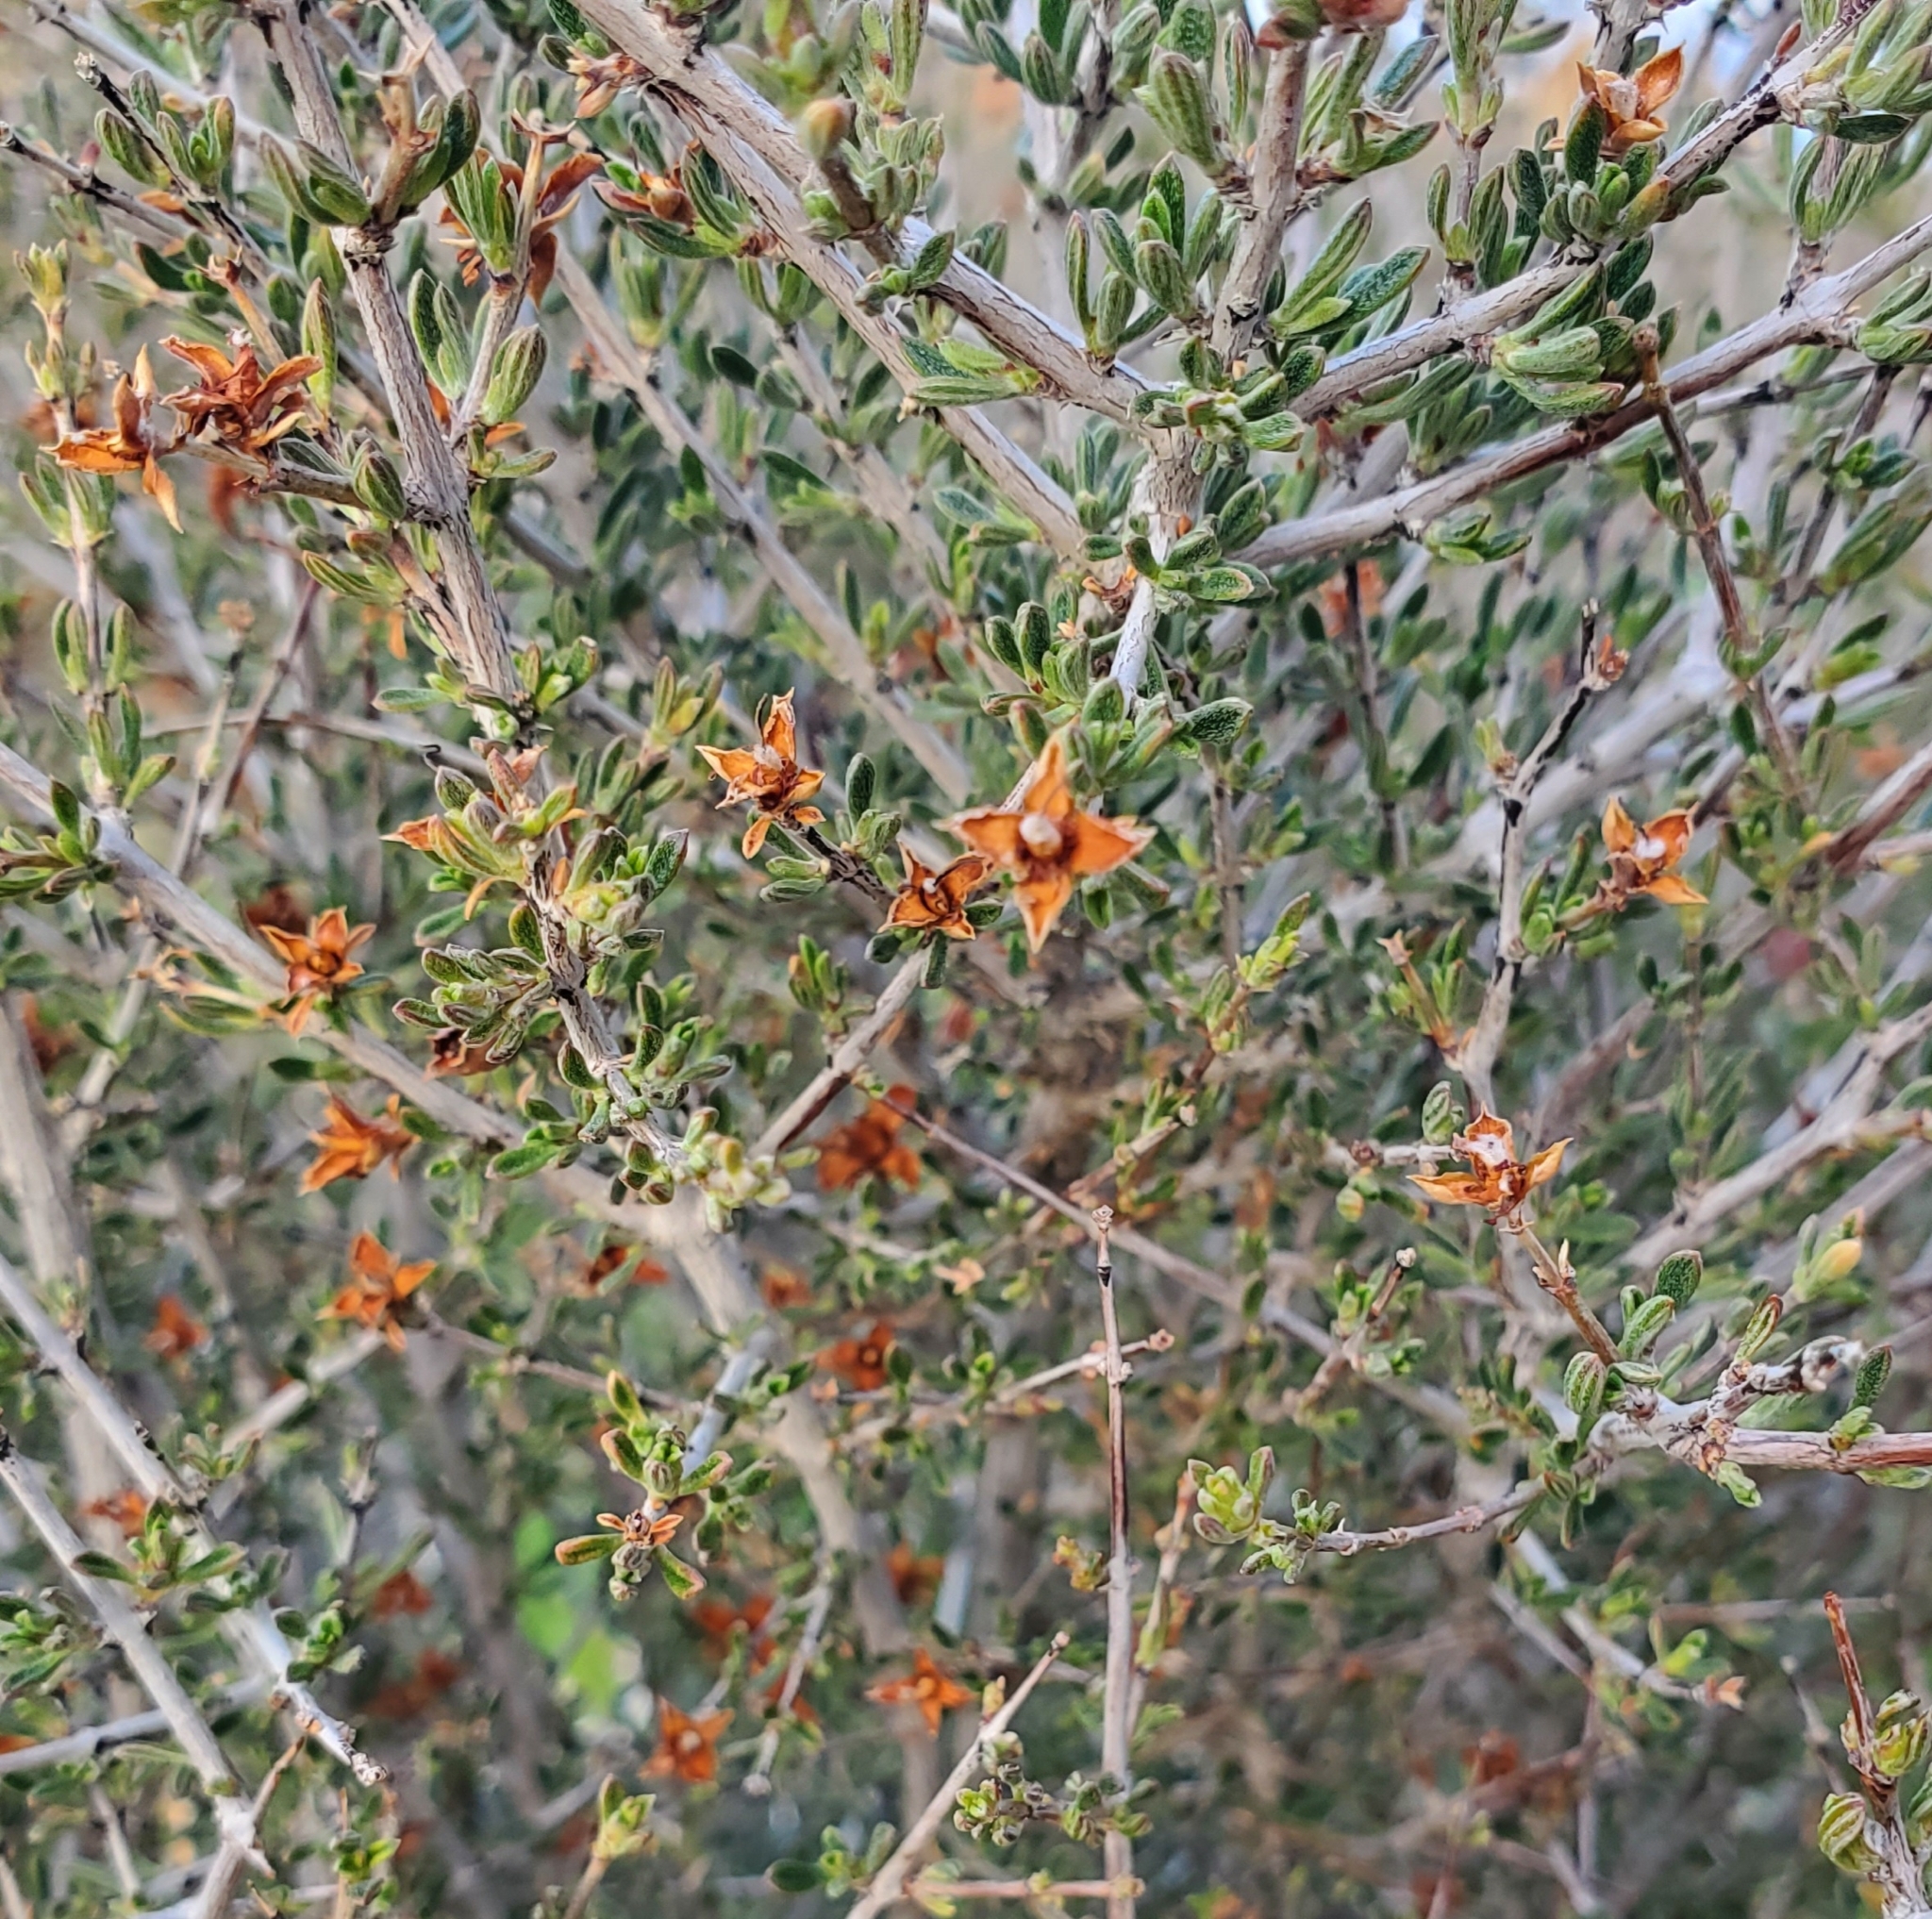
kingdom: Plantae
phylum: Tracheophyta
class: Magnoliopsida
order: Rosales
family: Rosaceae
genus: Coleogyne
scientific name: Coleogyne ramosissima
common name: Blackbrush
